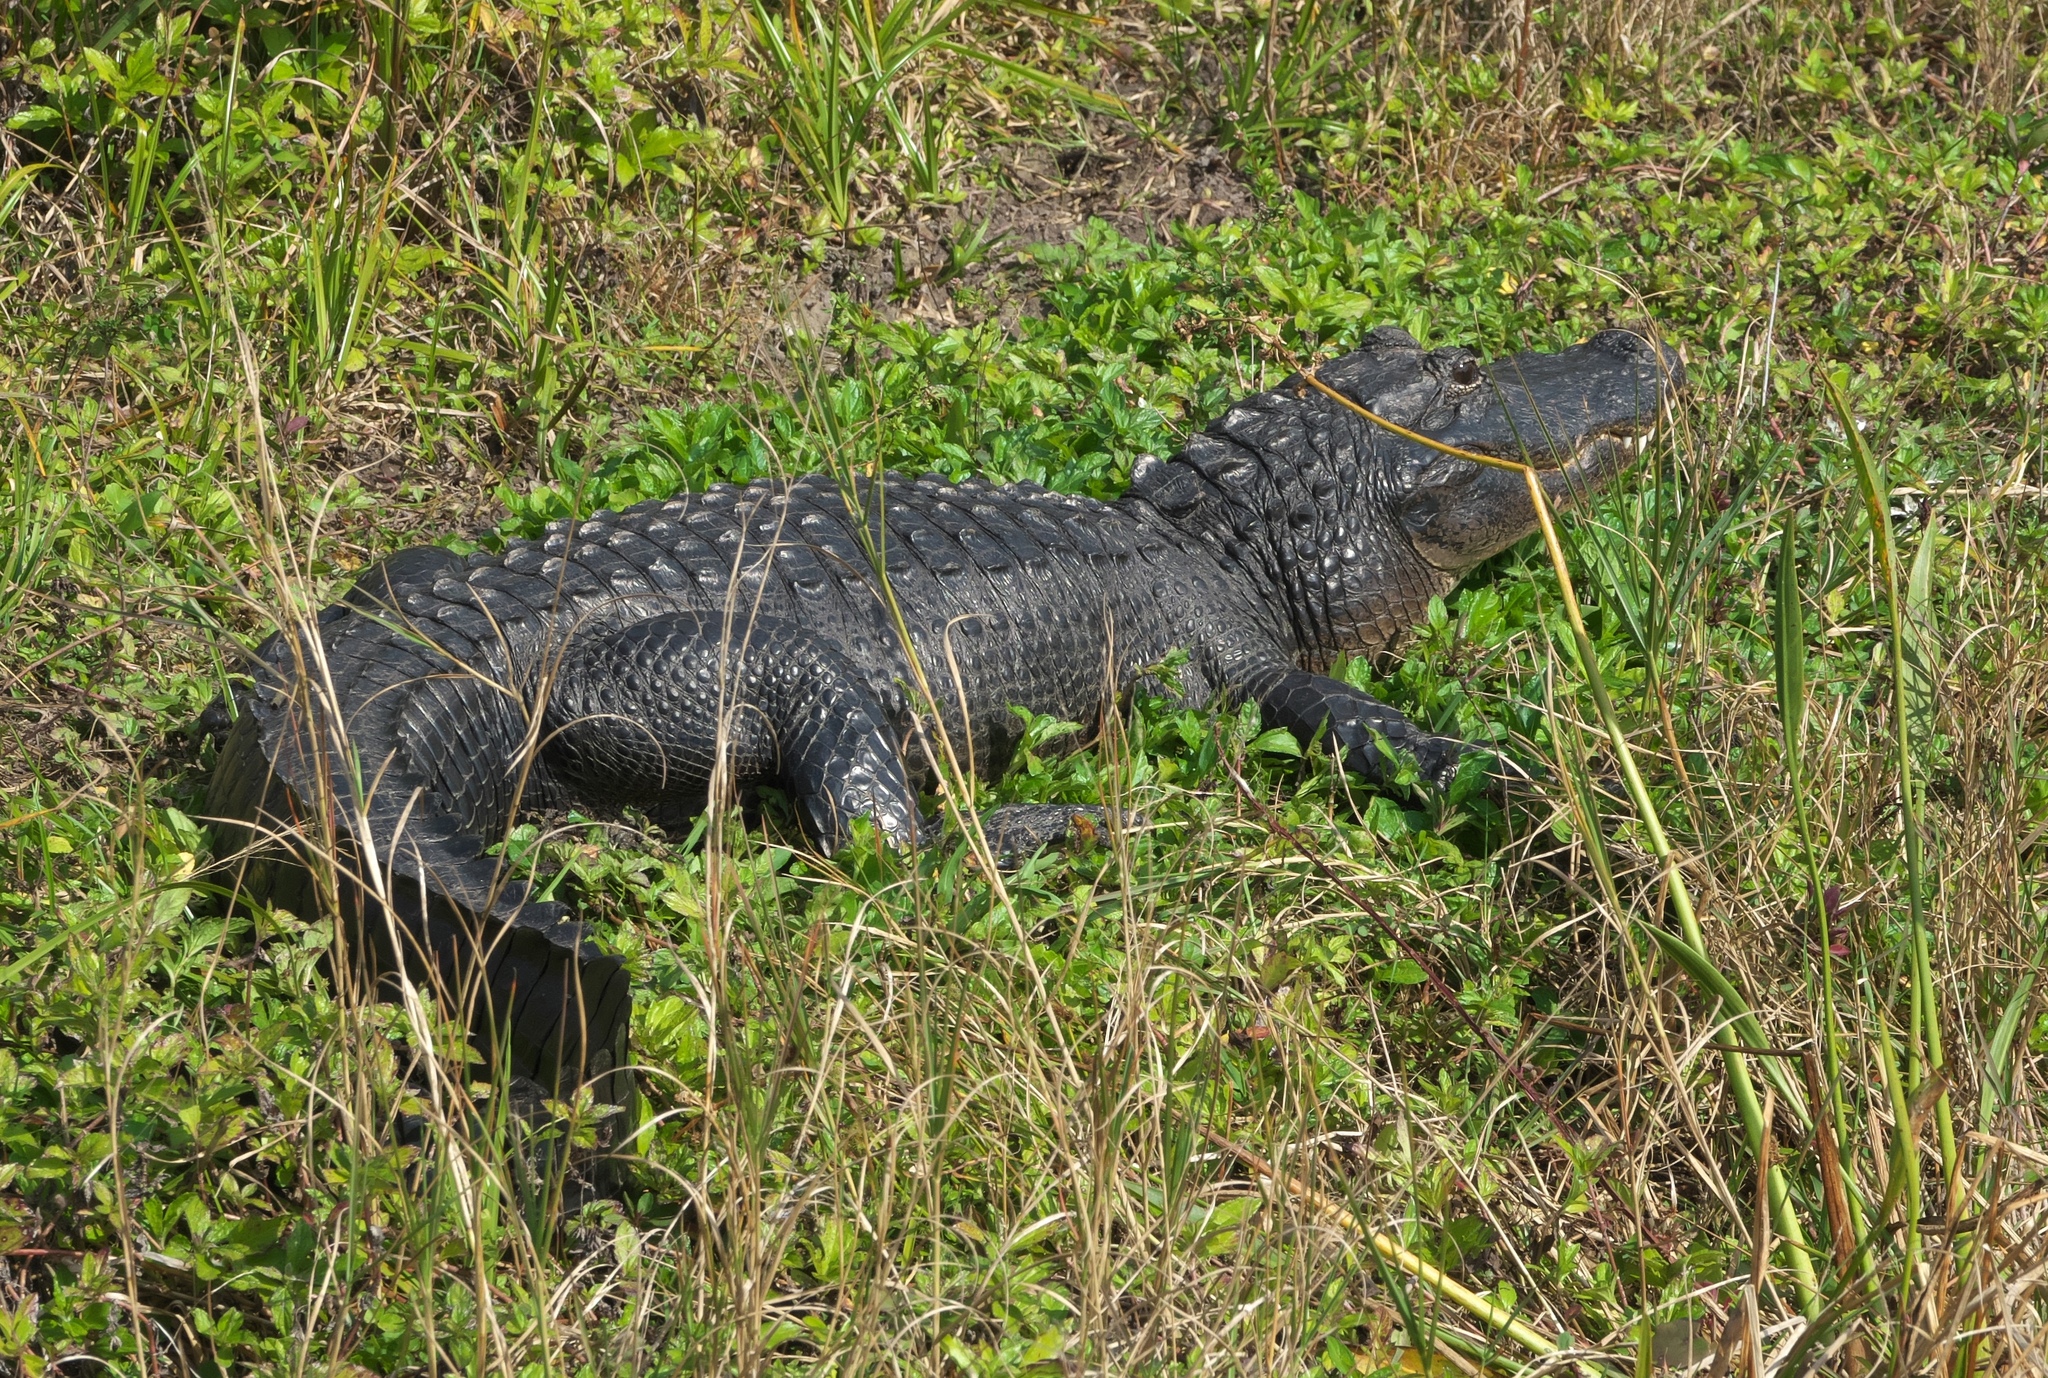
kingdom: Animalia
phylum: Chordata
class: Crocodylia
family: Alligatoridae
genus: Alligator
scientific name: Alligator mississippiensis
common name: American alligator
